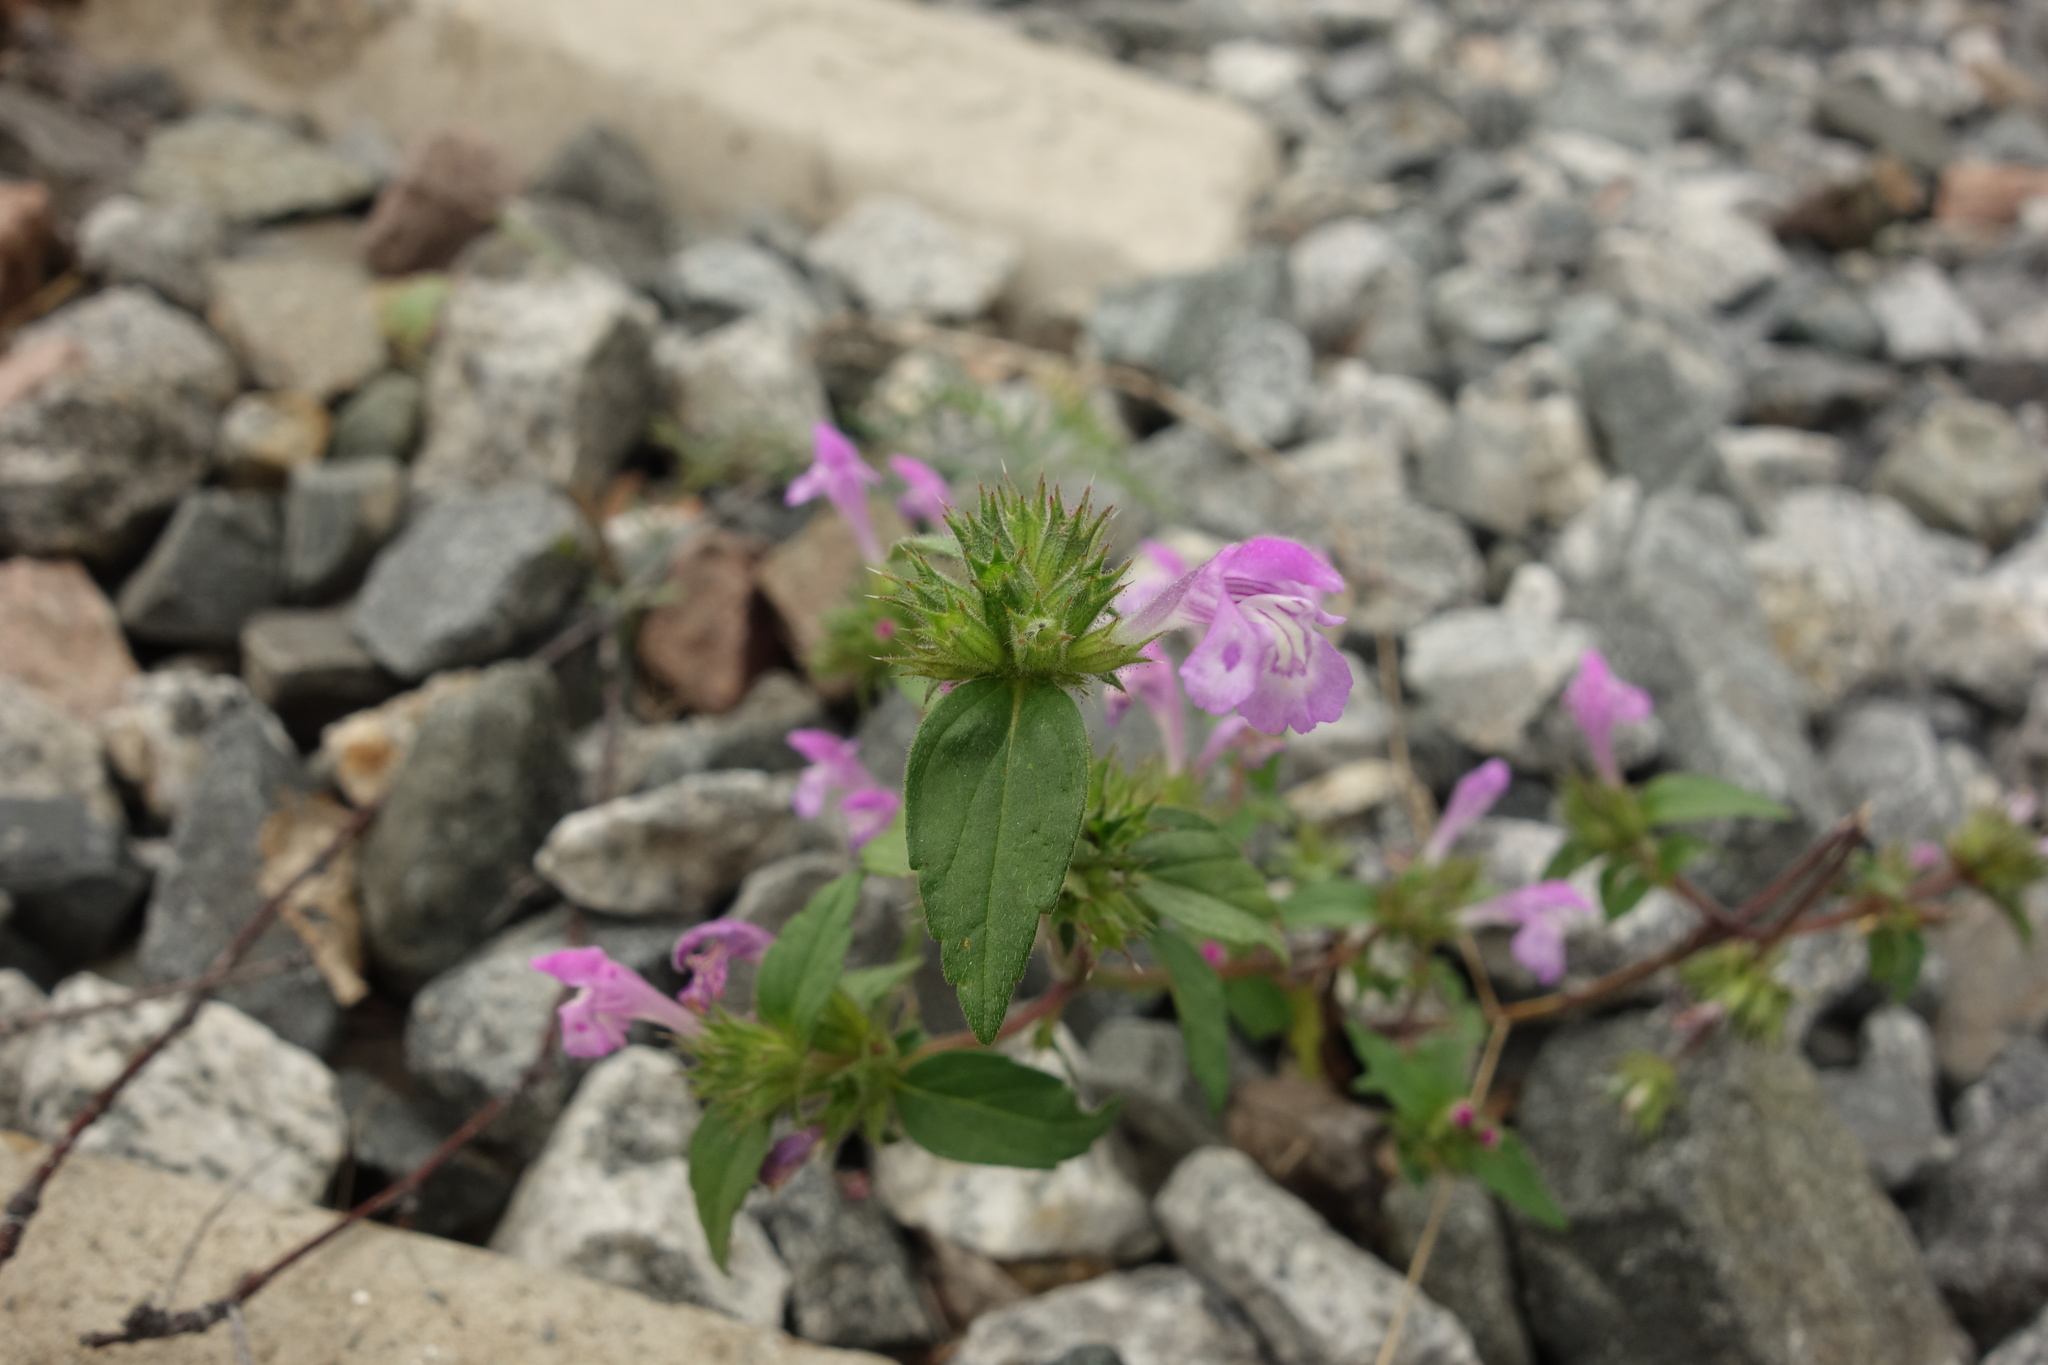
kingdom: Plantae
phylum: Tracheophyta
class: Magnoliopsida
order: Lamiales
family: Lamiaceae
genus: Galeopsis
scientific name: Galeopsis ladanum
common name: Broad-leaved hemp-nettle
